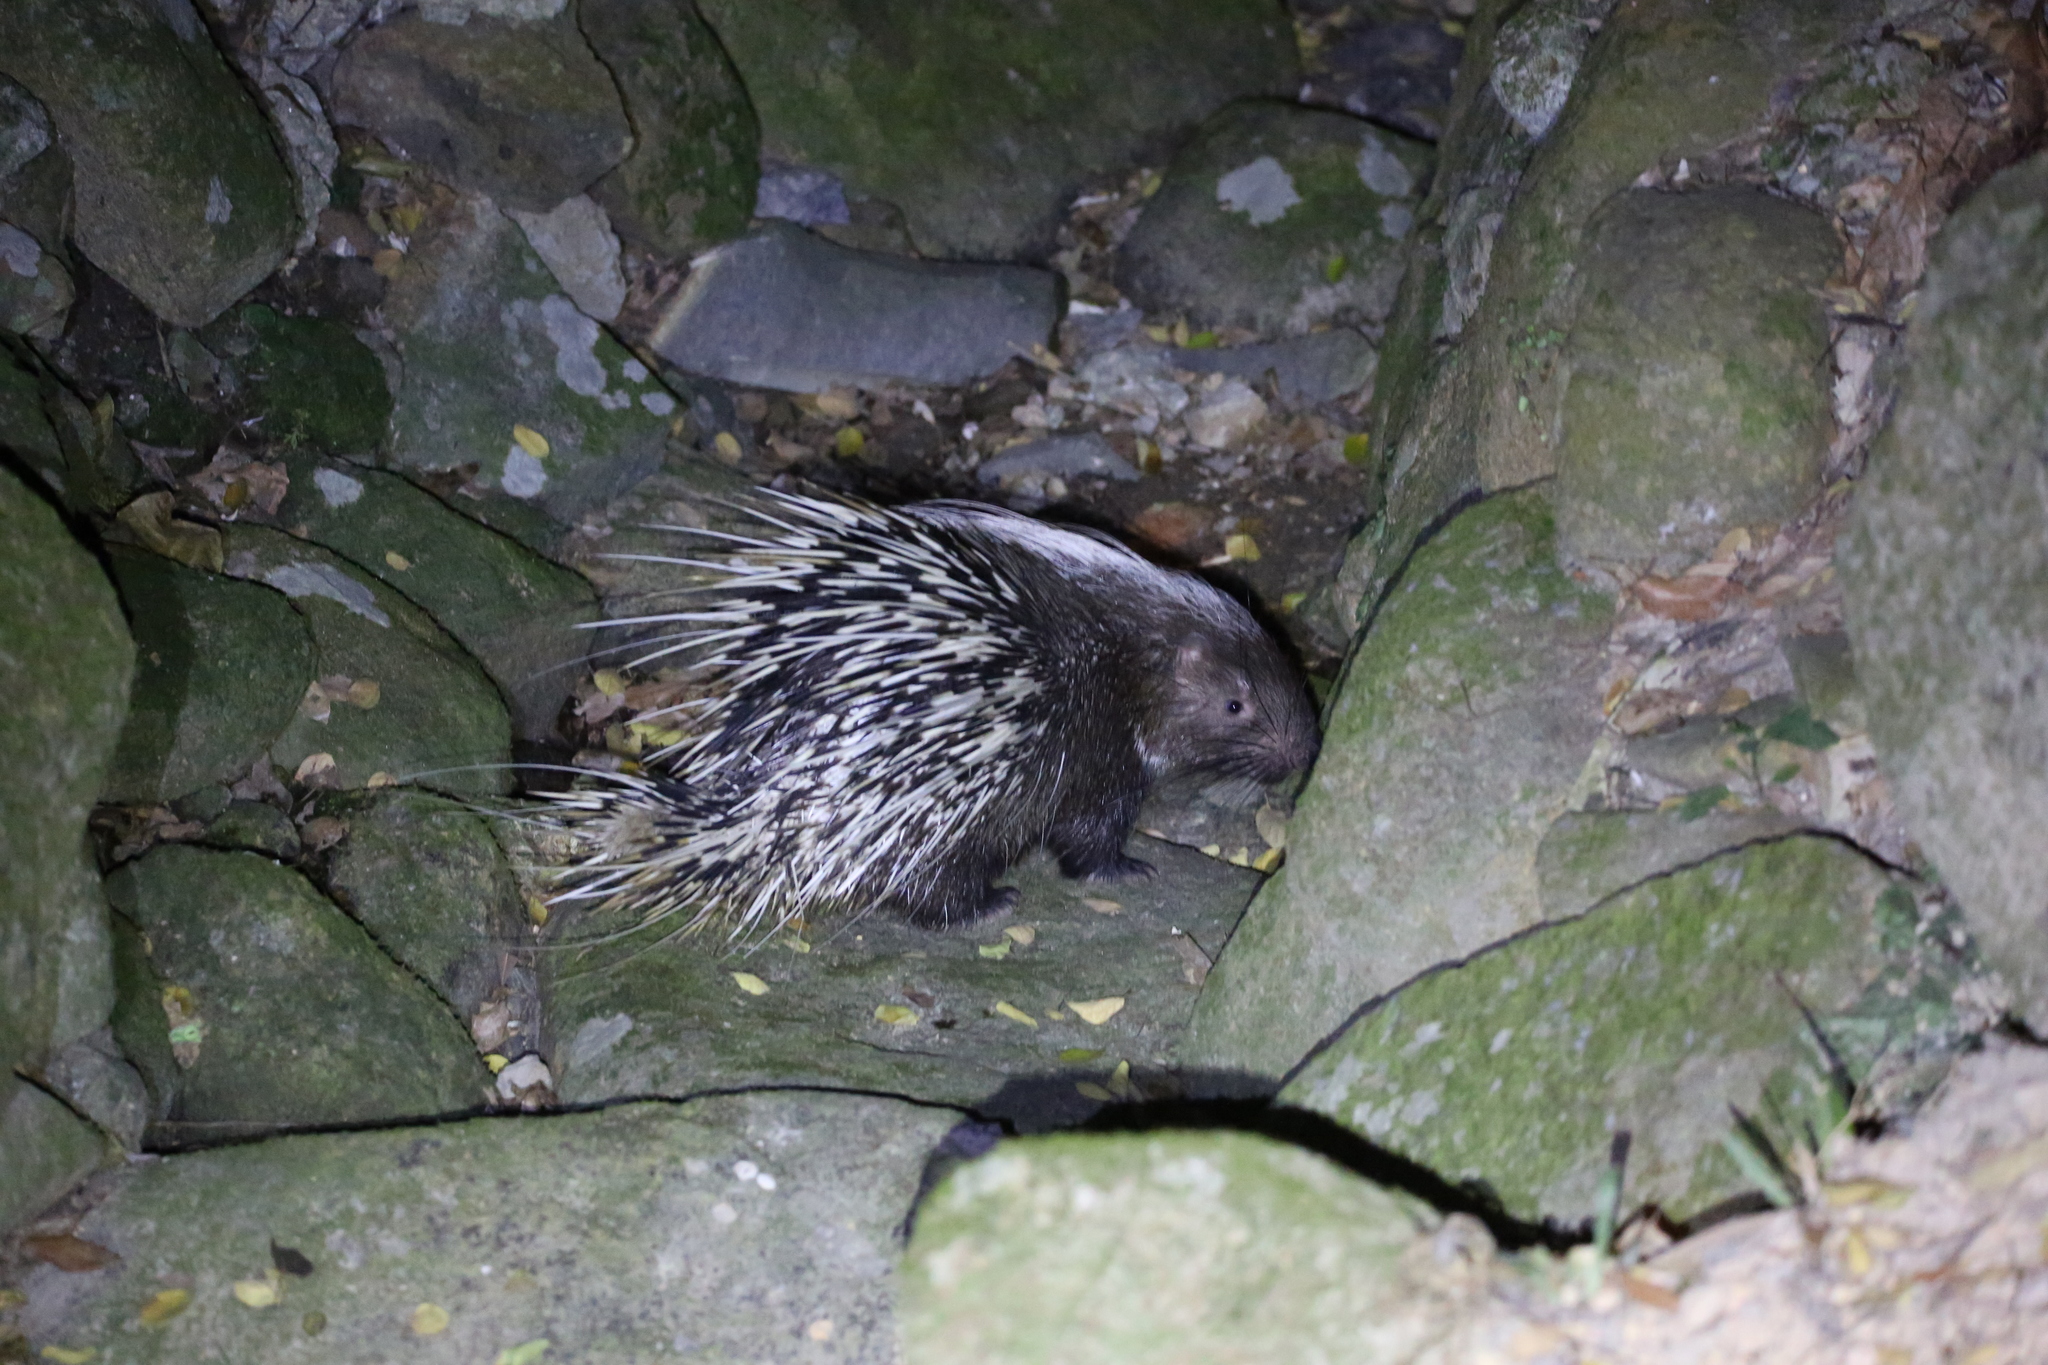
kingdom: Animalia
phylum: Chordata
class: Mammalia
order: Rodentia
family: Hystricidae
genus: Hystrix
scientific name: Hystrix brachyura
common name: Malayan porcupine
